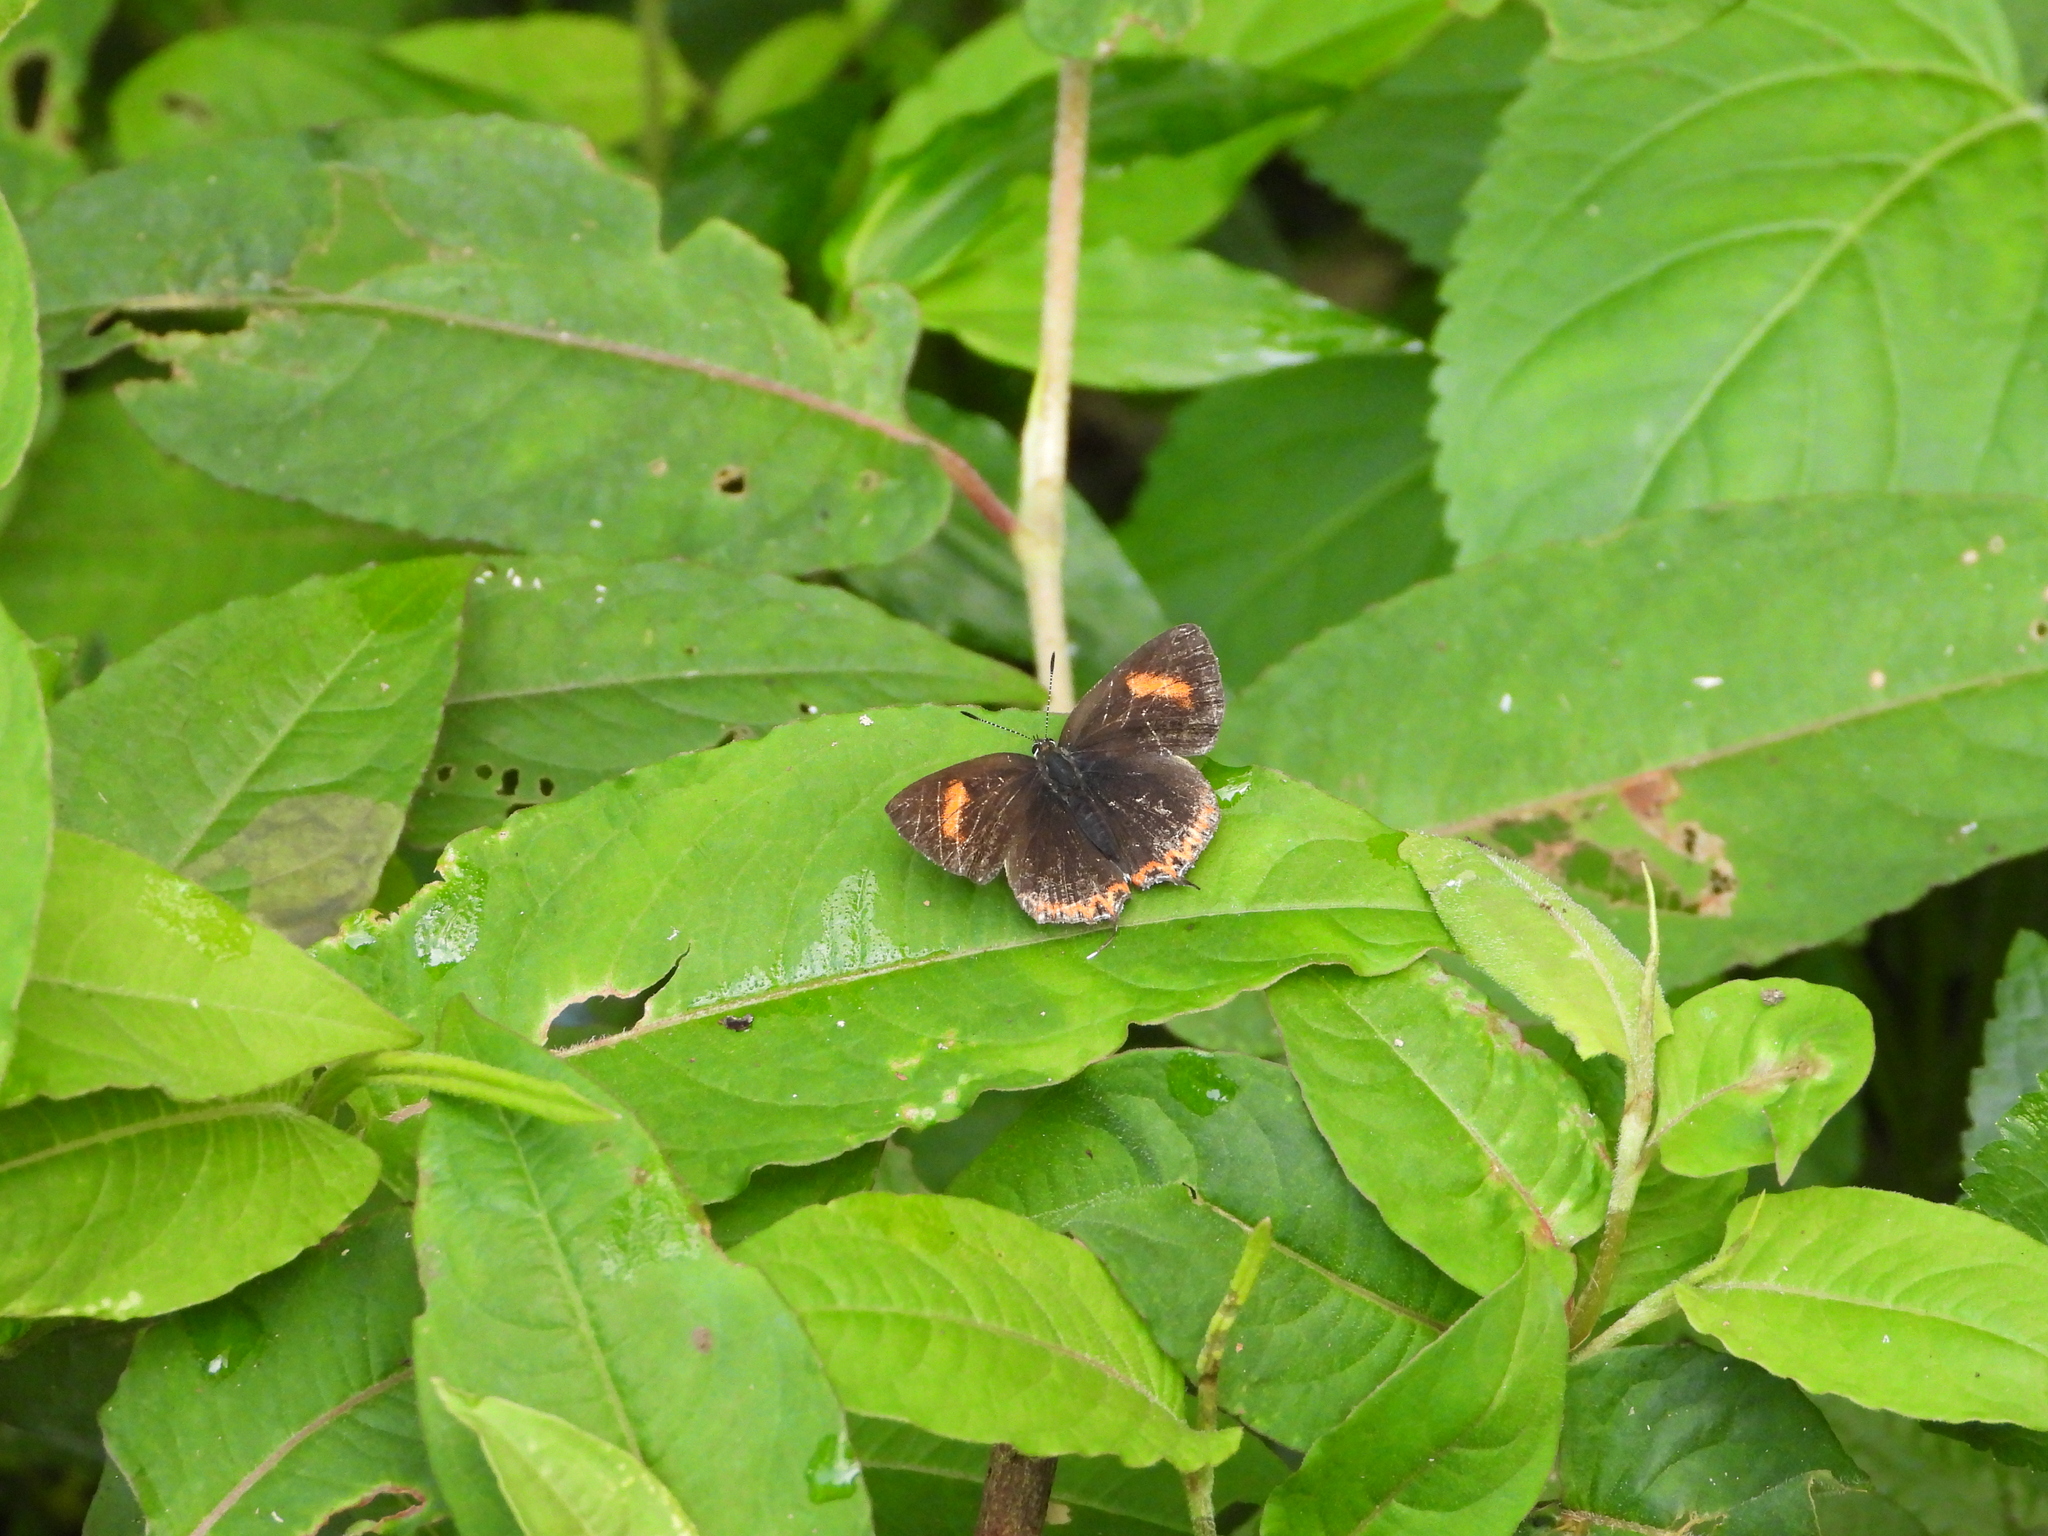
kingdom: Animalia
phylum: Arthropoda
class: Insecta
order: Lepidoptera
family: Lycaenidae
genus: Heliophorus
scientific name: Heliophorus ila
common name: Restricted purple sapphire
